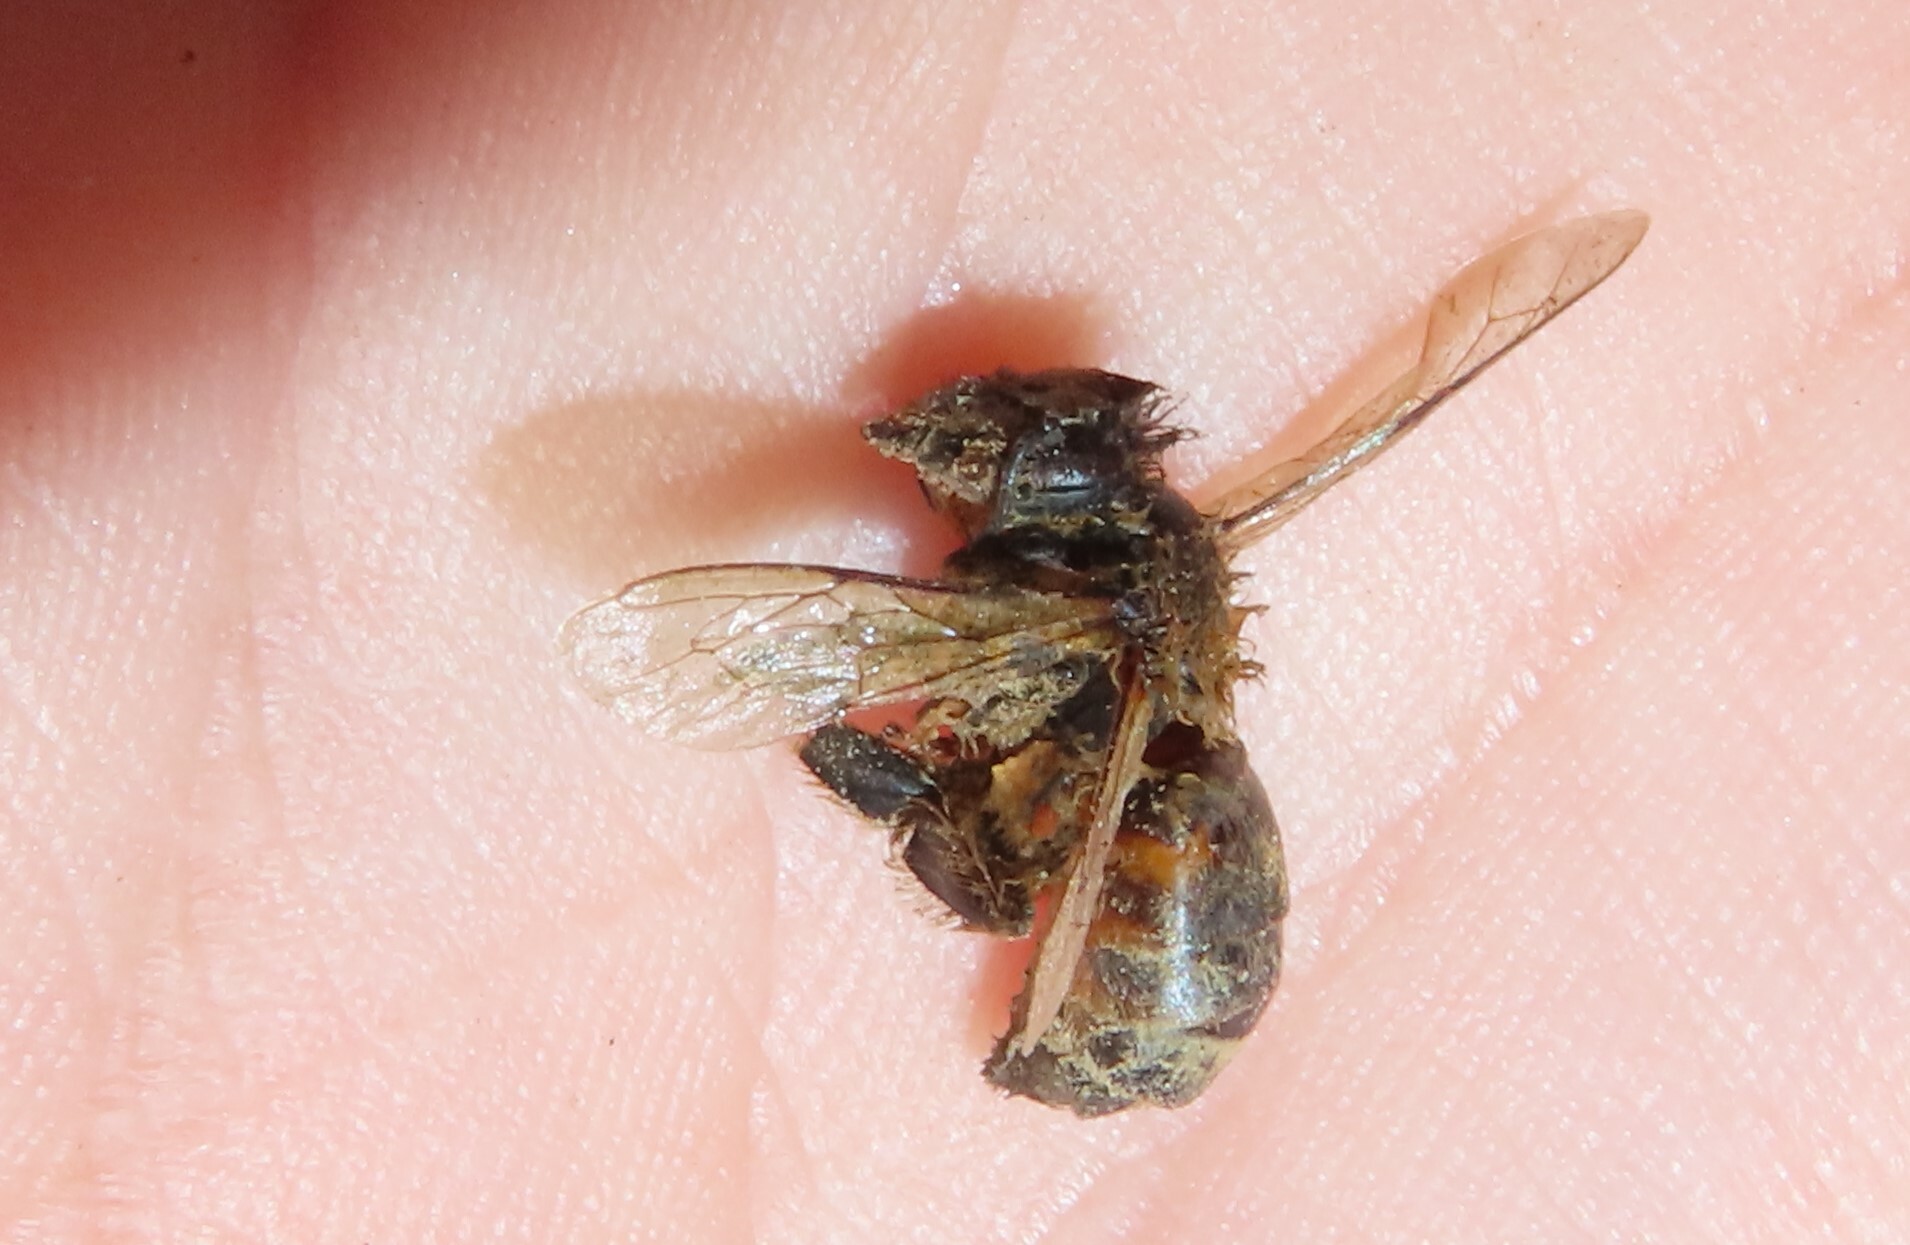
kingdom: Animalia
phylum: Arthropoda
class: Insecta
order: Hymenoptera
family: Apidae
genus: Apis
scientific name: Apis mellifera
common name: Honey bee
